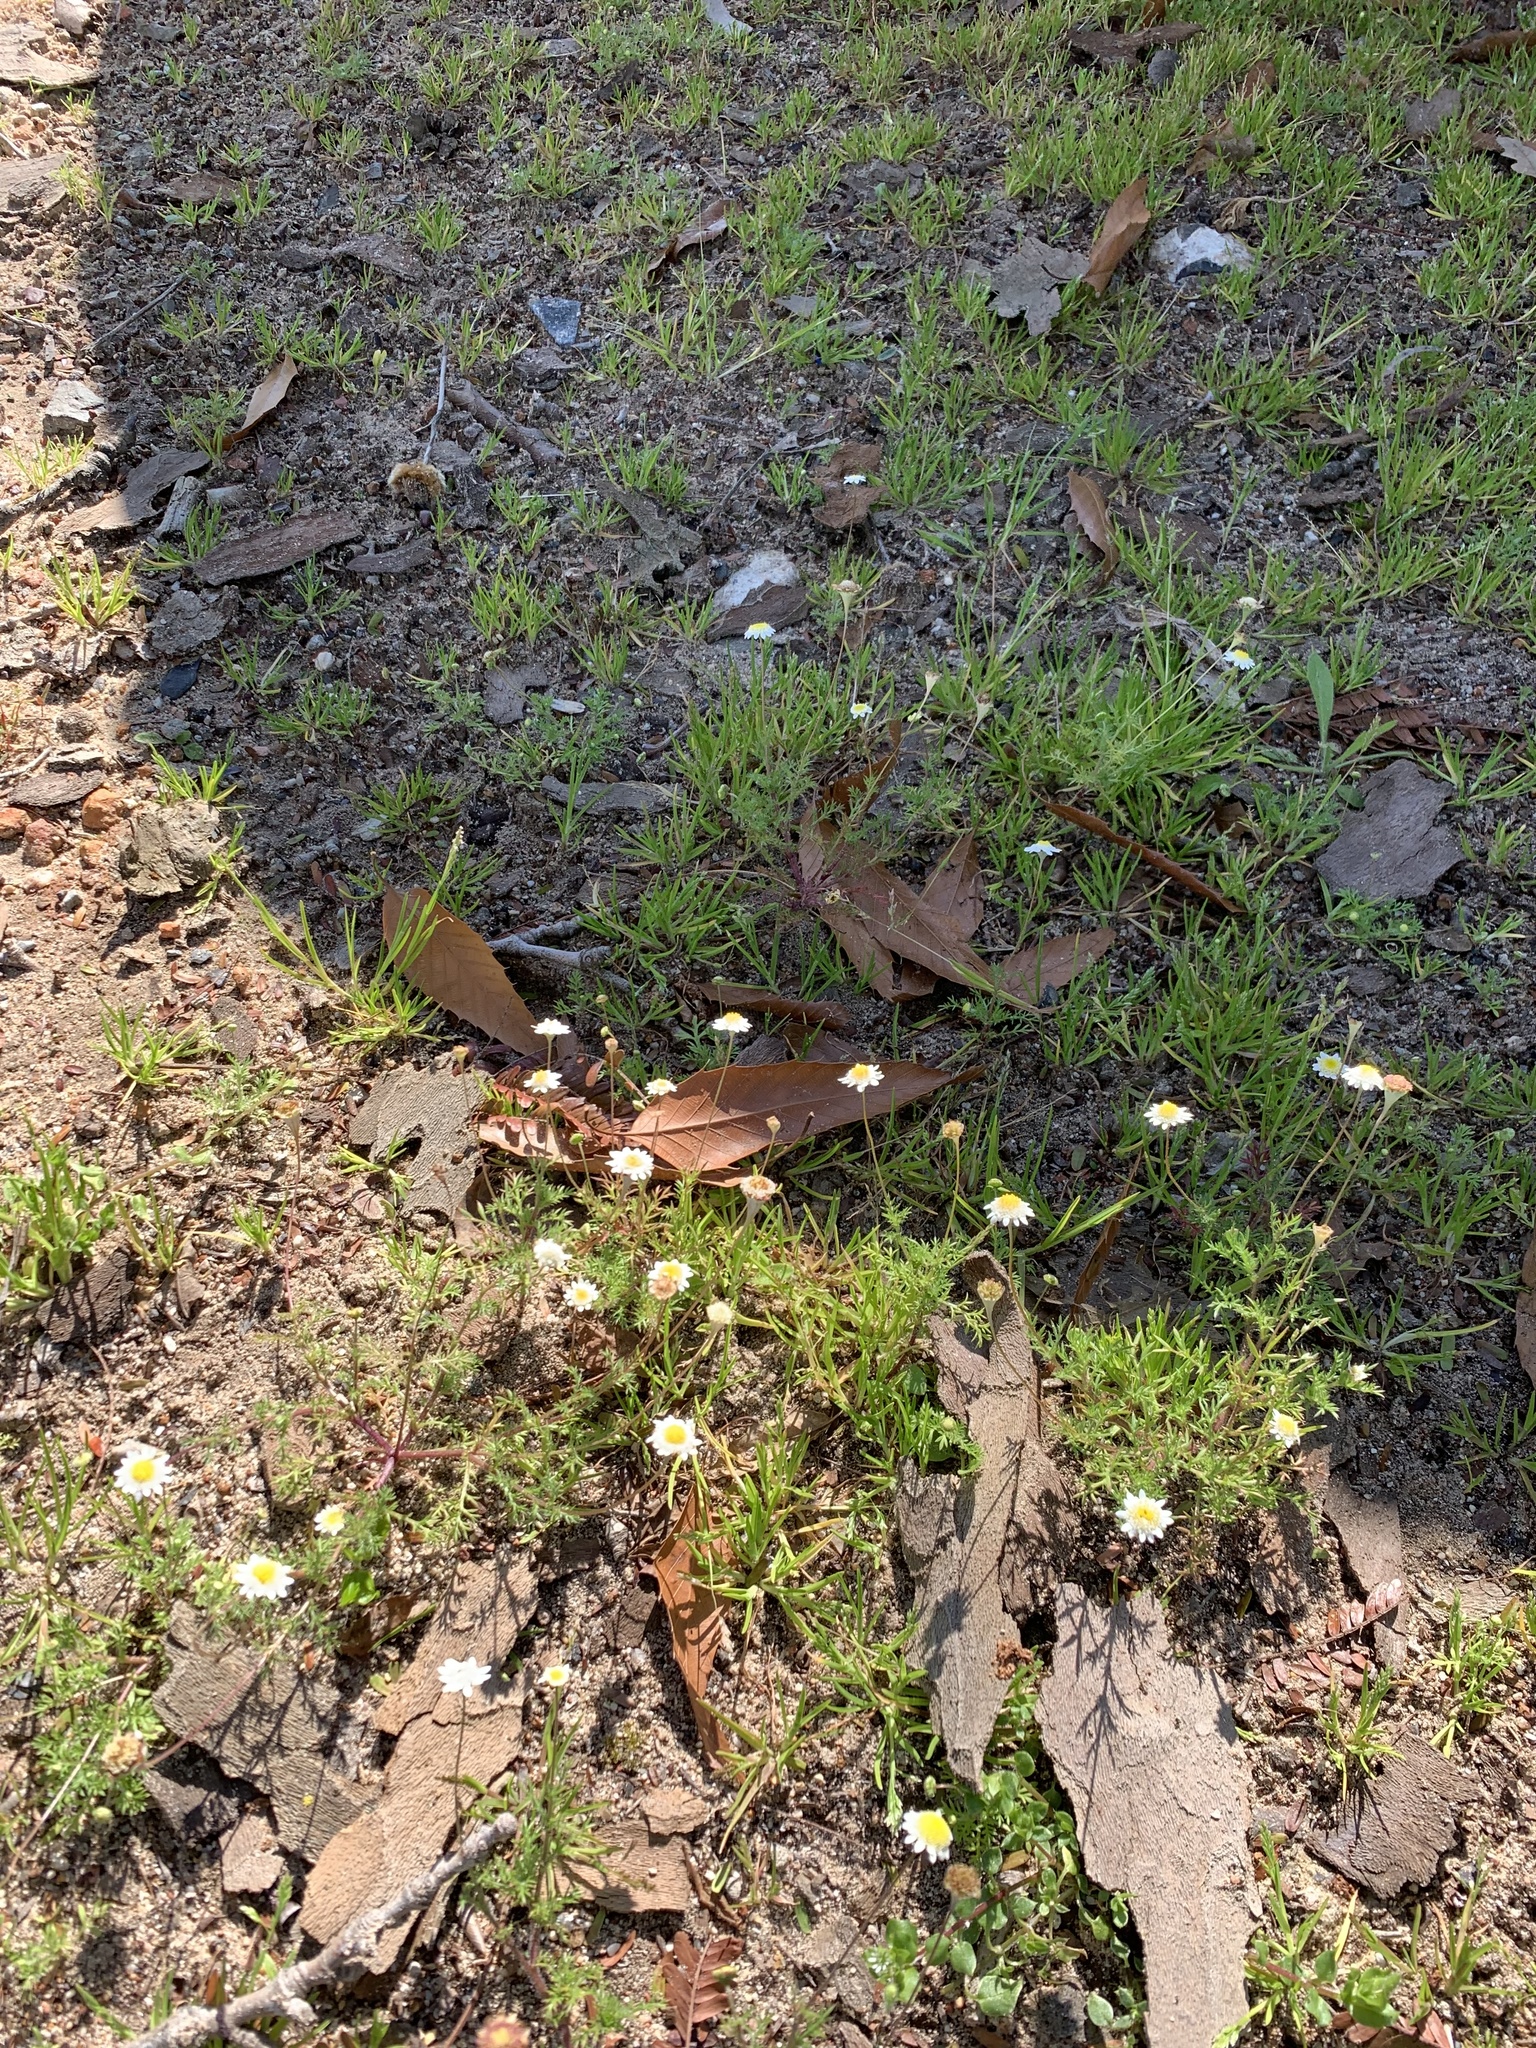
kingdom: Plantae
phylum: Tracheophyta
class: Magnoliopsida
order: Asterales
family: Asteraceae
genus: Cotula
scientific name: Cotula turbinata
